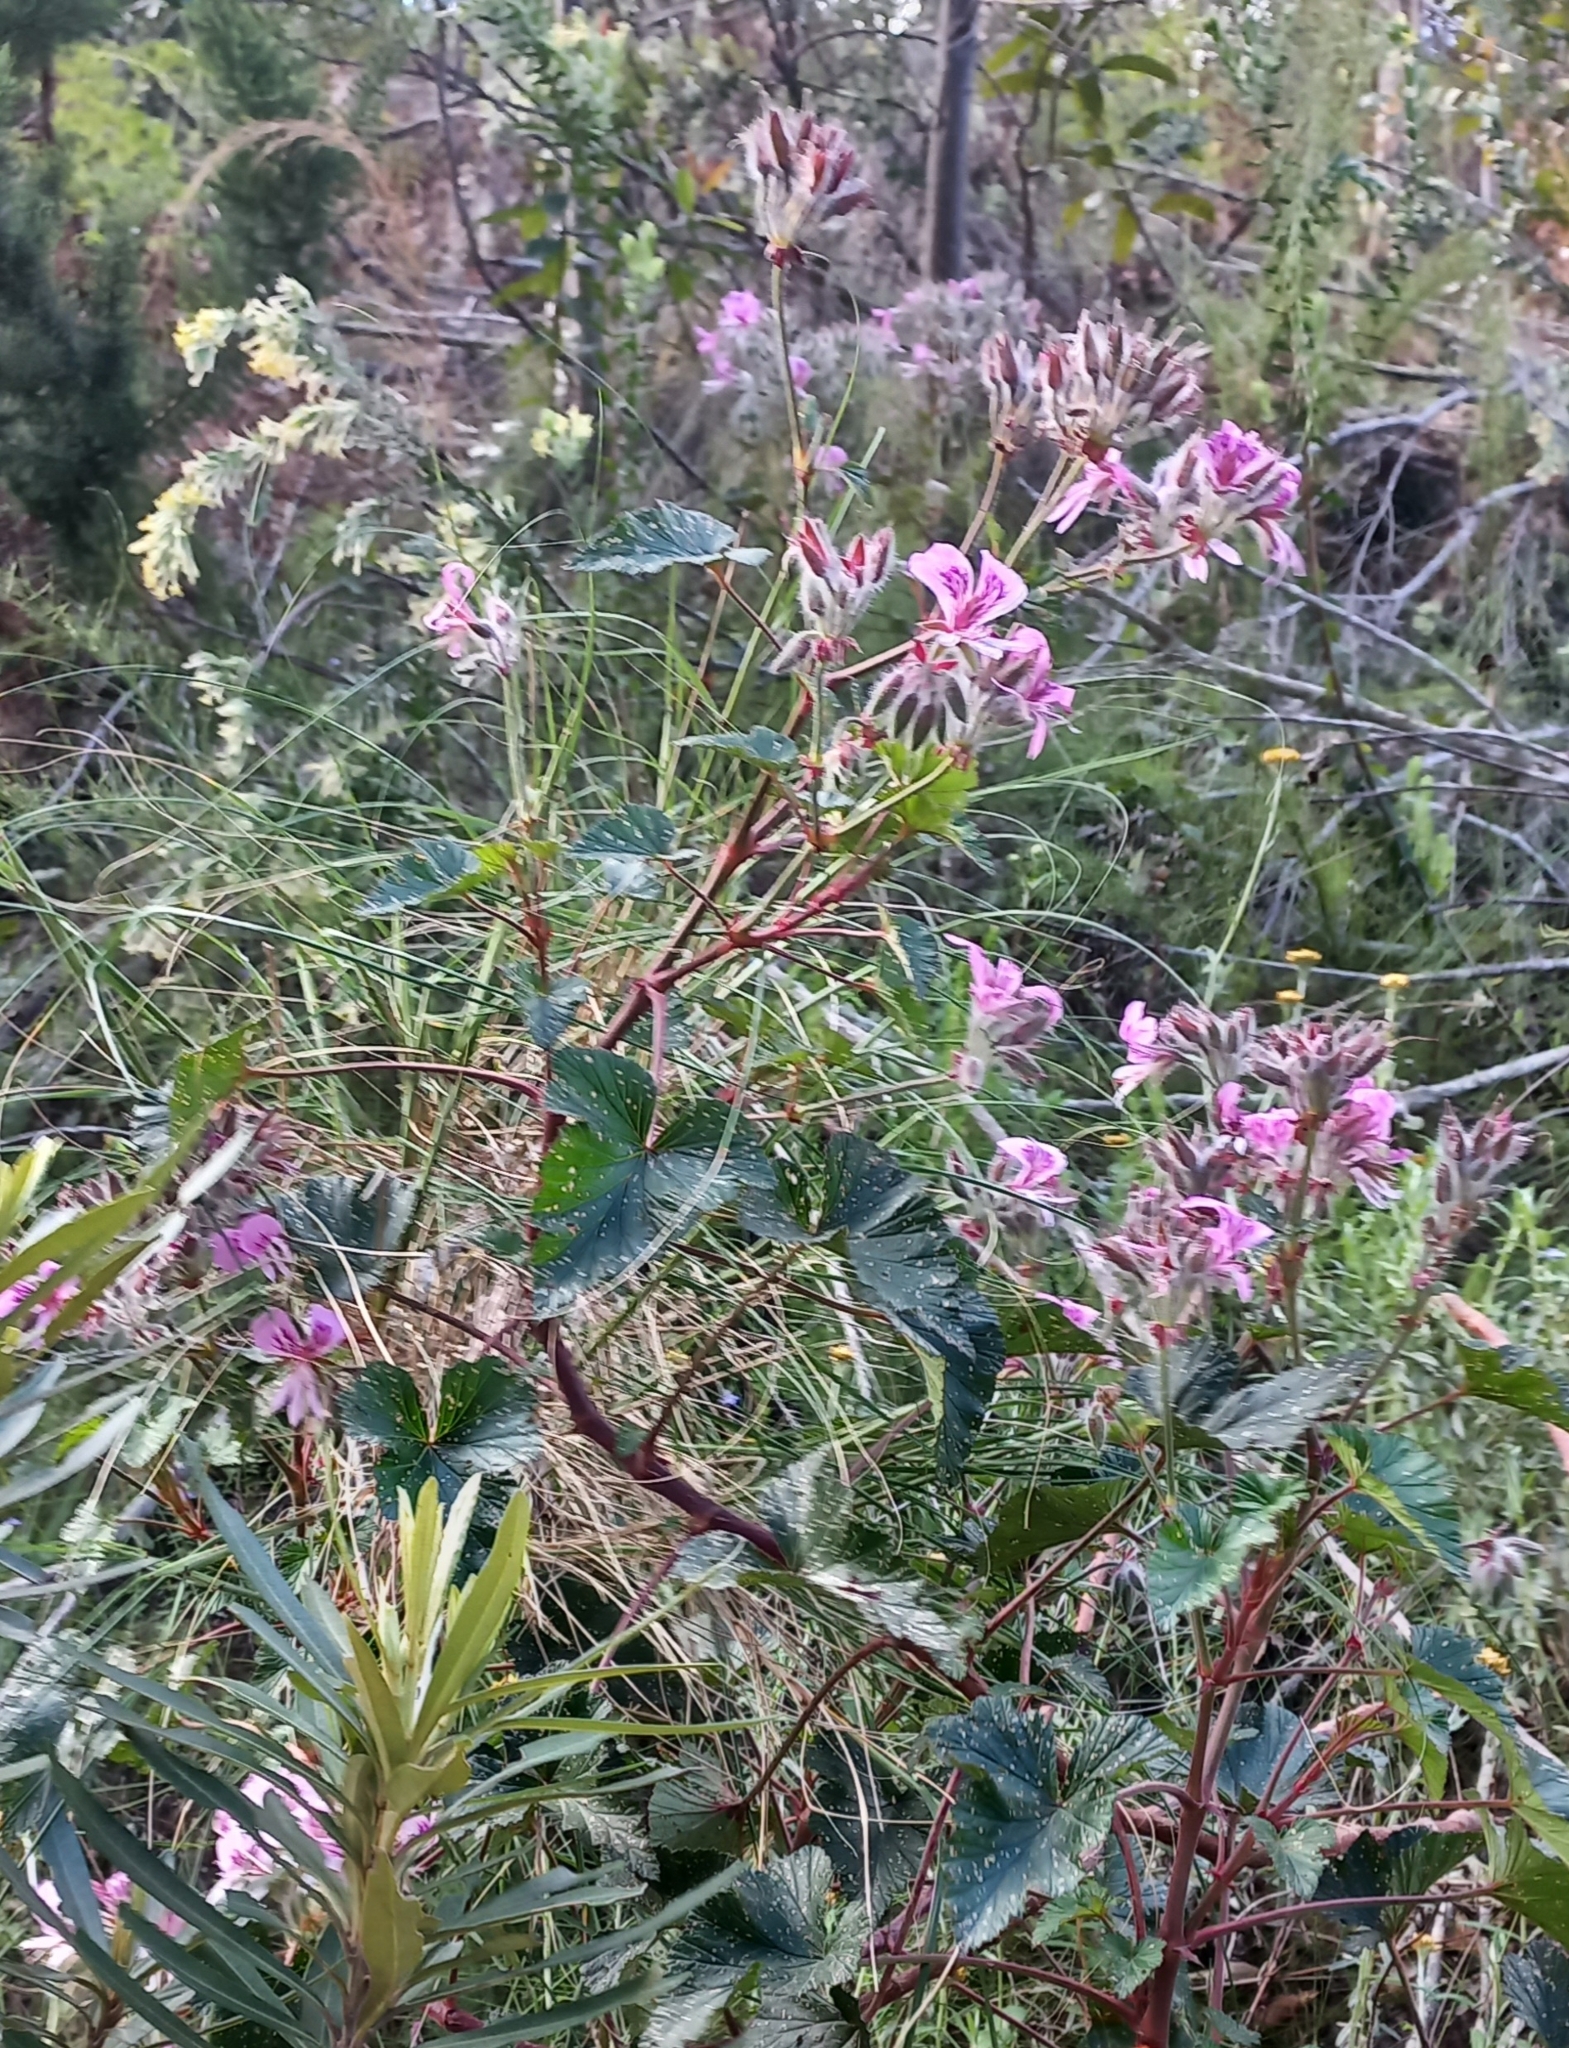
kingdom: Plantae
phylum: Tracheophyta
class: Magnoliopsida
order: Geraniales
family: Geraniaceae
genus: Pelargonium
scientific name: Pelargonium cordifolium
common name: Heart-leaf pelargonium
